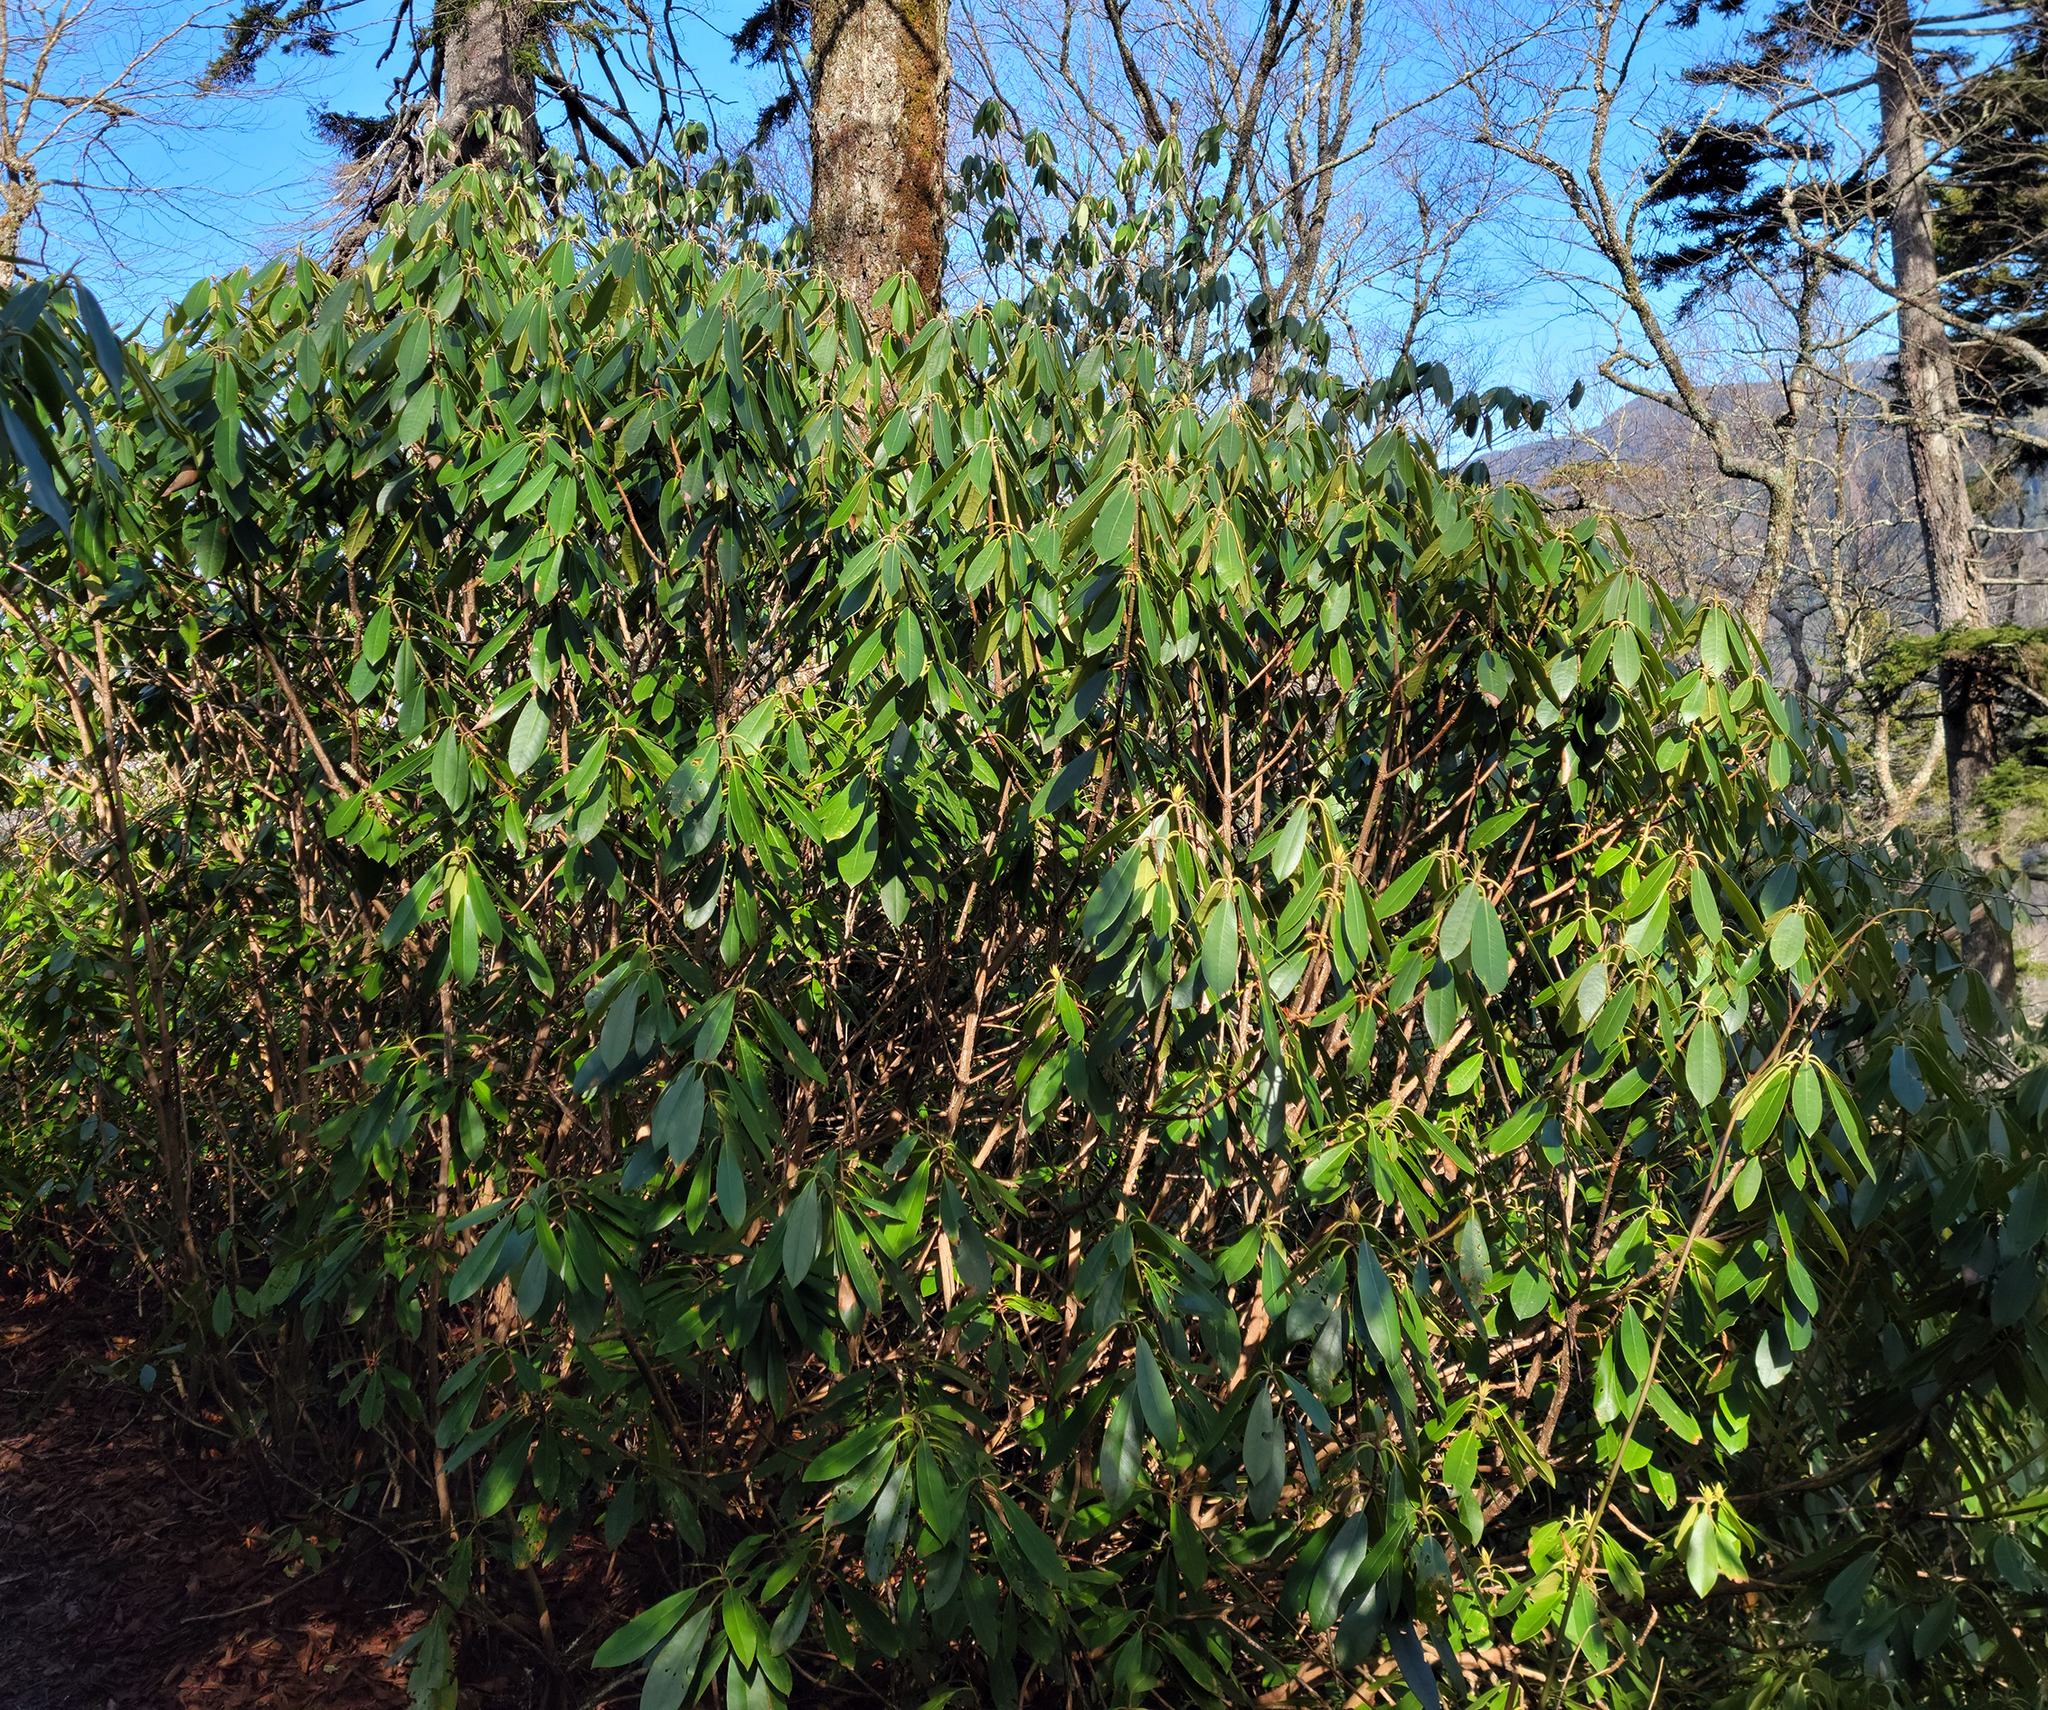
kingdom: Plantae
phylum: Tracheophyta
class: Magnoliopsida
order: Ericales
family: Ericaceae
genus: Rhododendron
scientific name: Rhododendron maximum
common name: Great rhododendron
